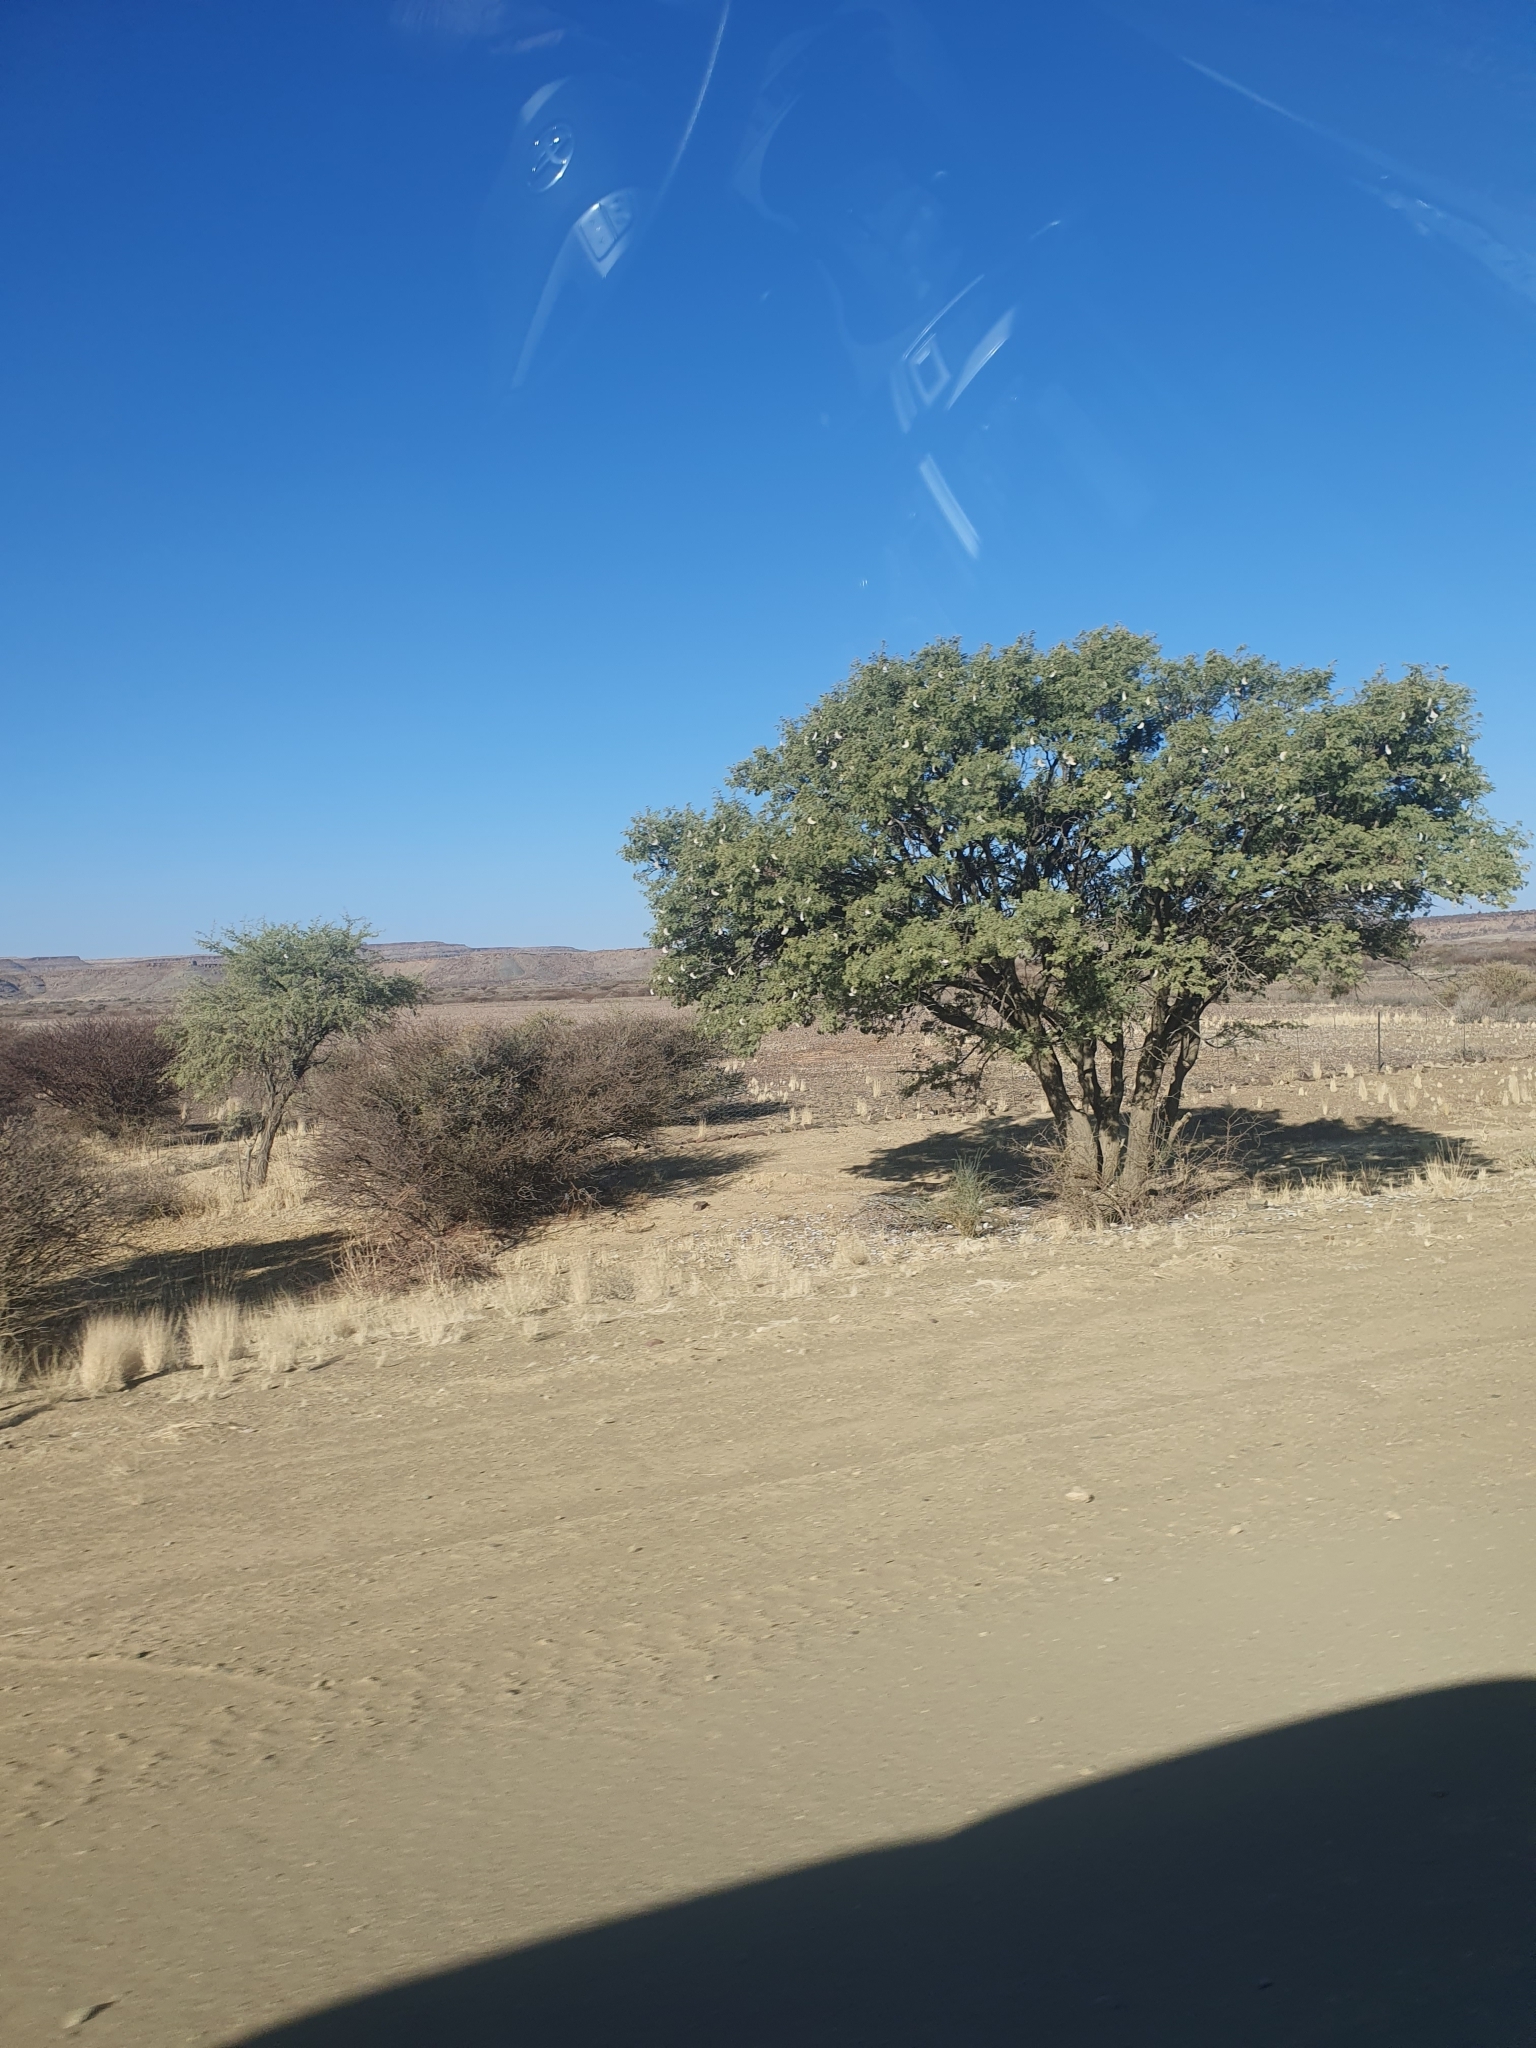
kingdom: Plantae
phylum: Tracheophyta
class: Magnoliopsida
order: Fabales
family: Fabaceae
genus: Vachellia
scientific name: Vachellia erioloba
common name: Camel thorn
